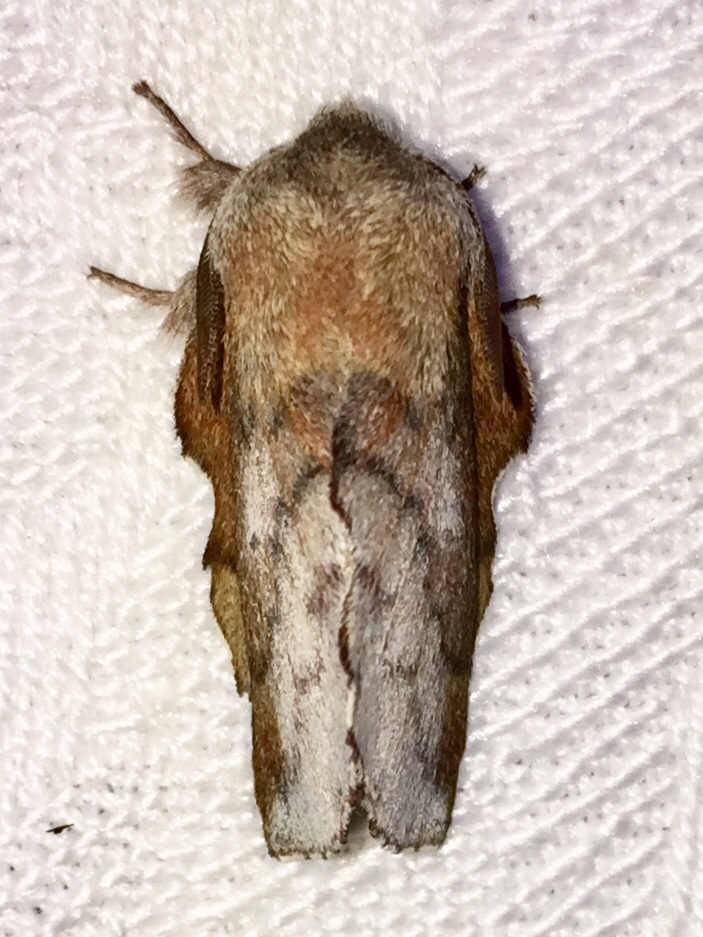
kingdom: Animalia
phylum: Arthropoda
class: Insecta
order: Lepidoptera
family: Lasiocampidae
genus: Phyllodesma
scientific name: Phyllodesma americana
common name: American lappet moth
